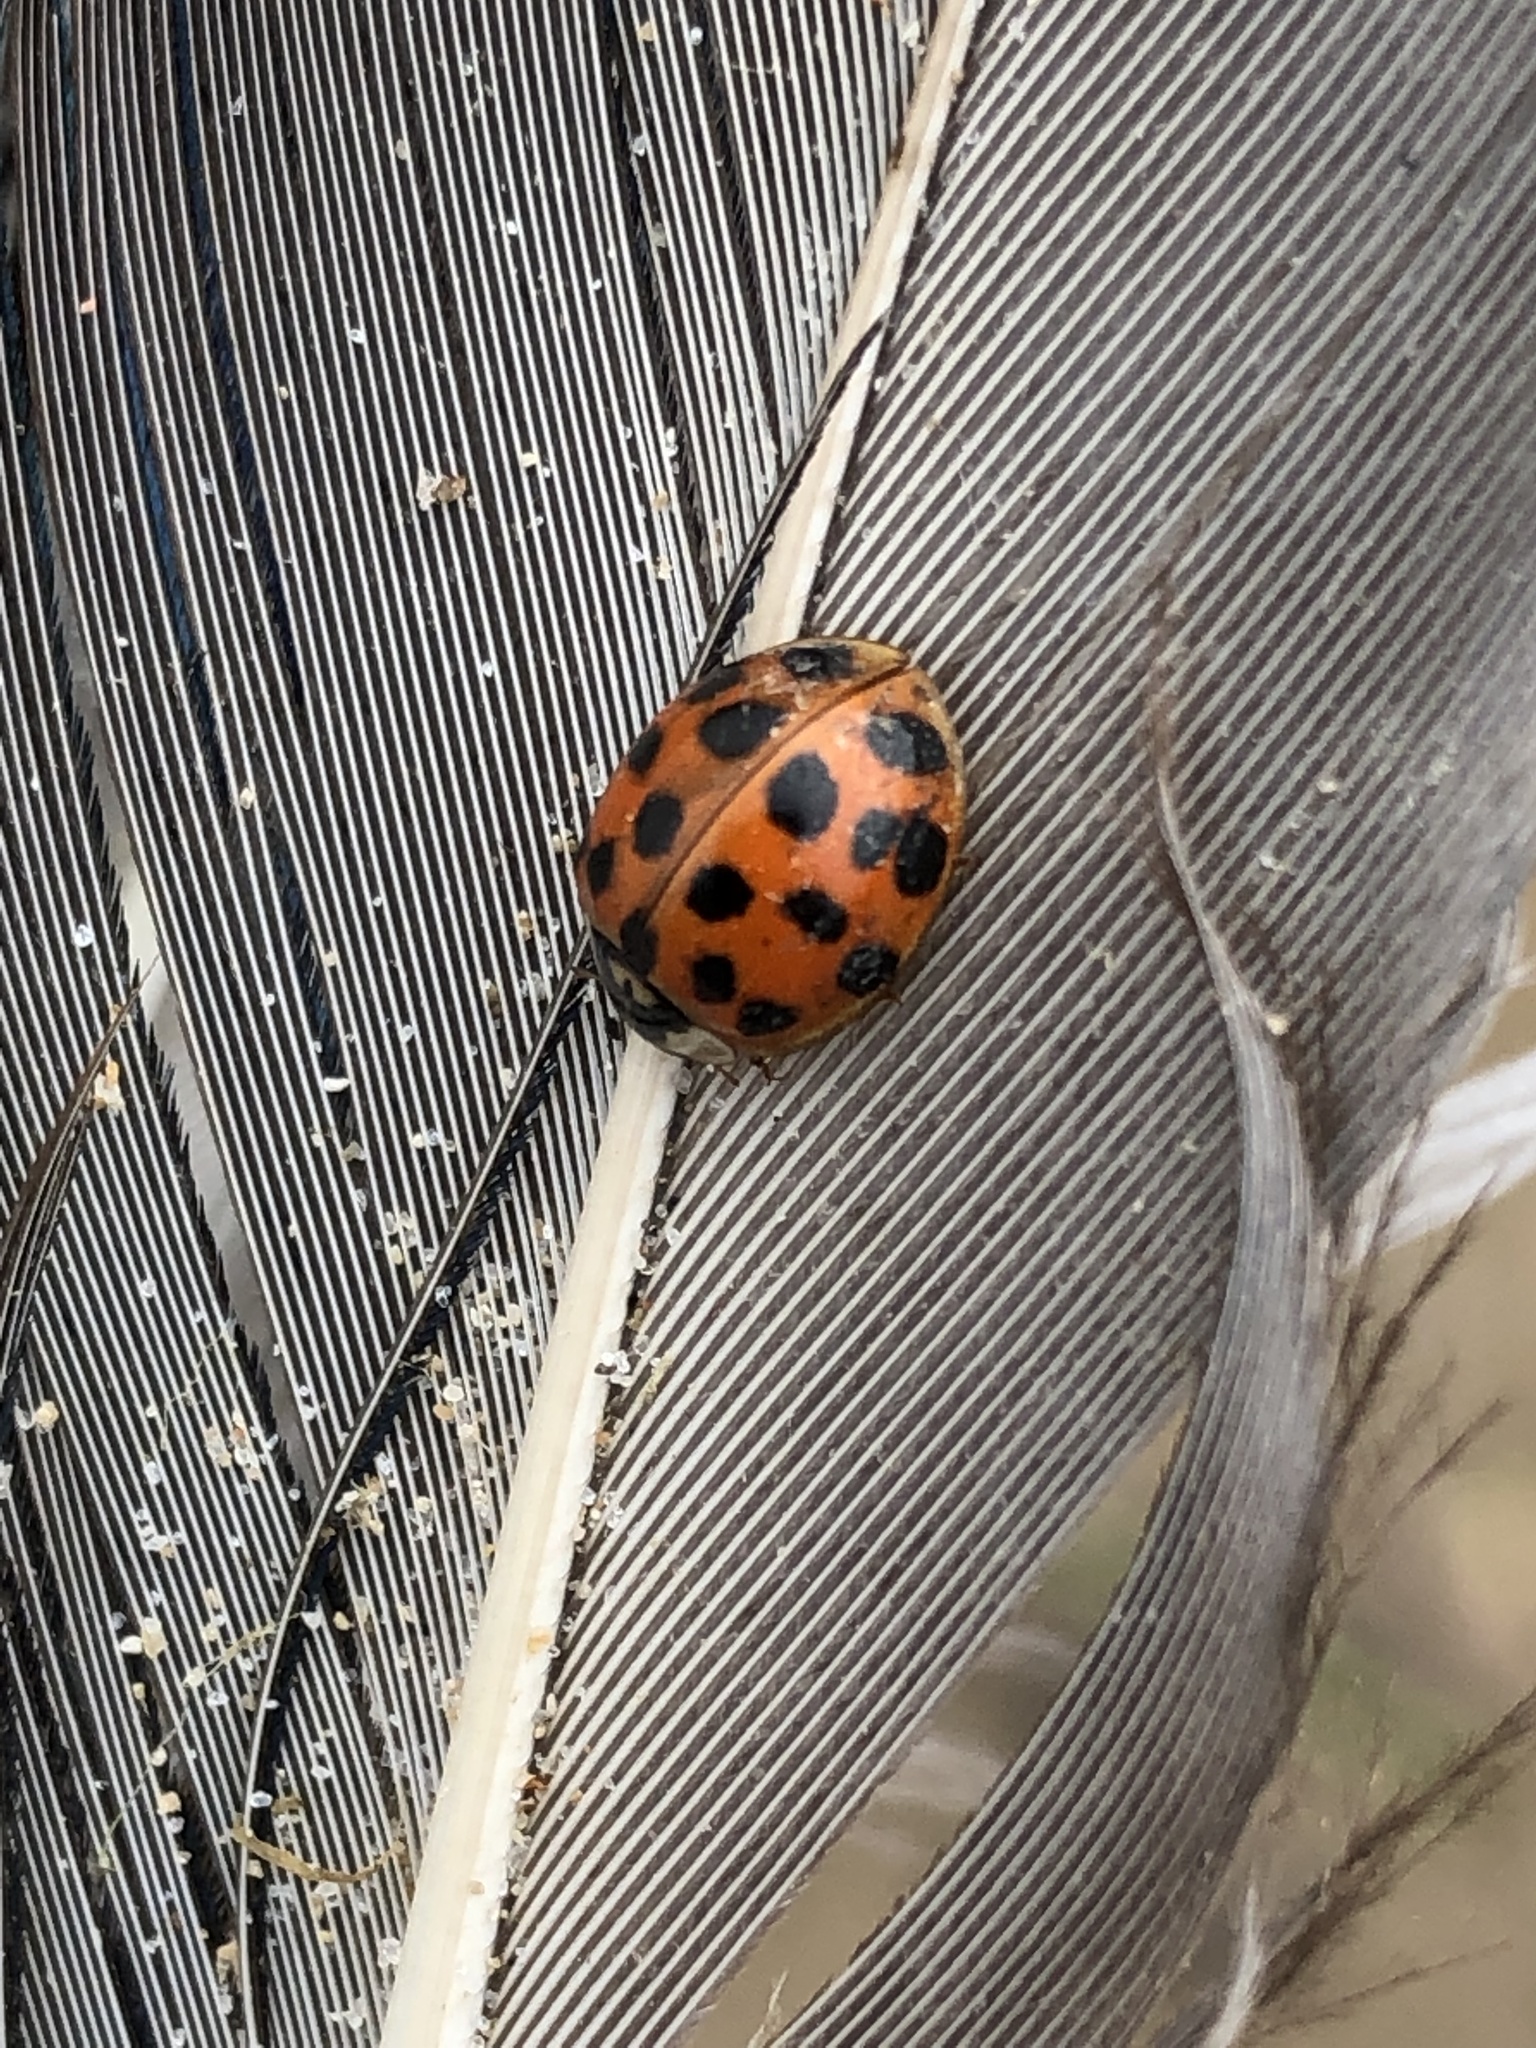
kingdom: Animalia
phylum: Arthropoda
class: Insecta
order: Coleoptera
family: Coccinellidae
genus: Harmonia
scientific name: Harmonia axyridis
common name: Harlequin ladybird
